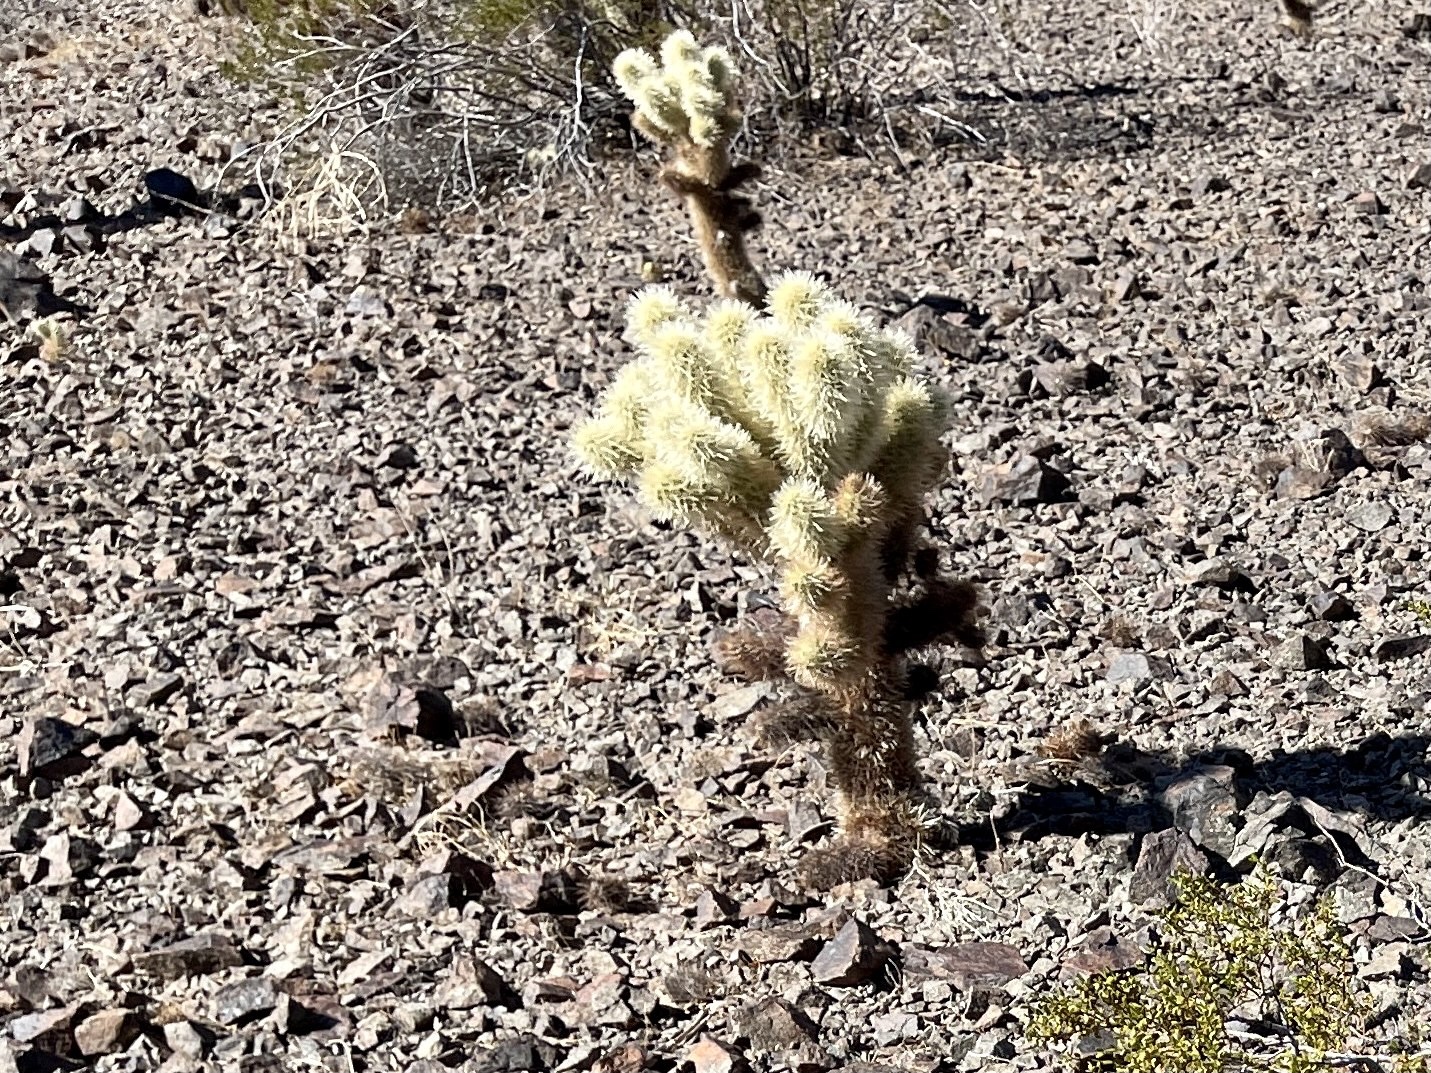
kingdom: Plantae
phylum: Tracheophyta
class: Magnoliopsida
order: Caryophyllales
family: Cactaceae
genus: Cylindropuntia
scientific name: Cylindropuntia fosbergii
